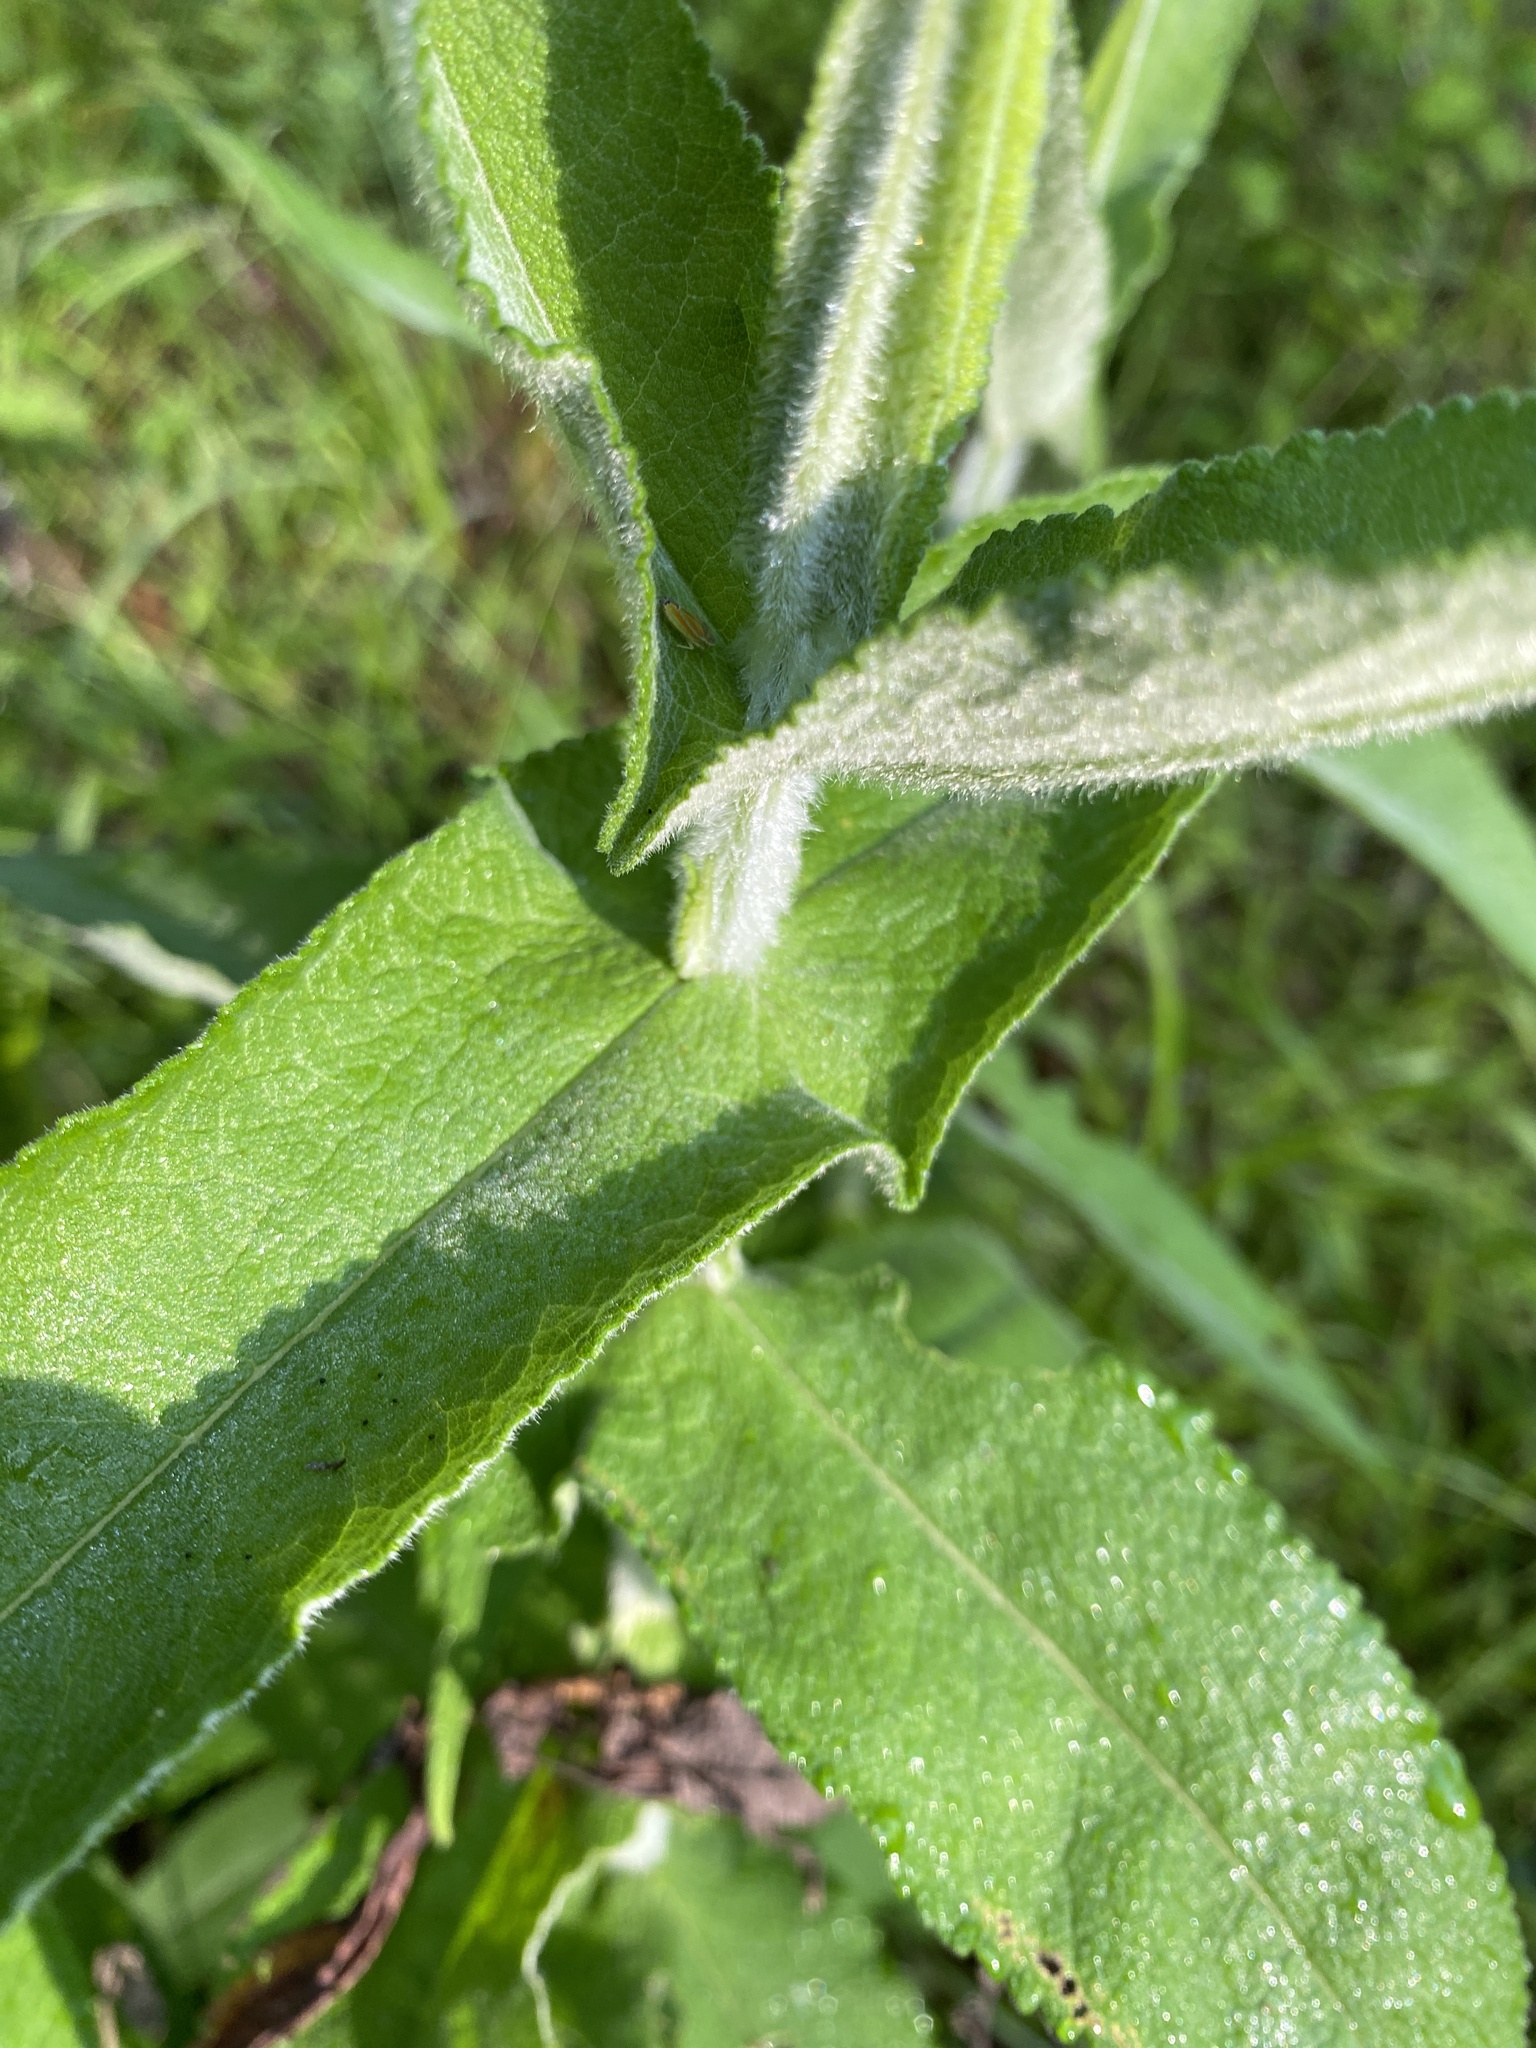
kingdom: Plantae
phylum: Tracheophyta
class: Magnoliopsida
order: Asterales
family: Asteraceae
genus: Eupatorium
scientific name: Eupatorium perfoliatum
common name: Boneset
